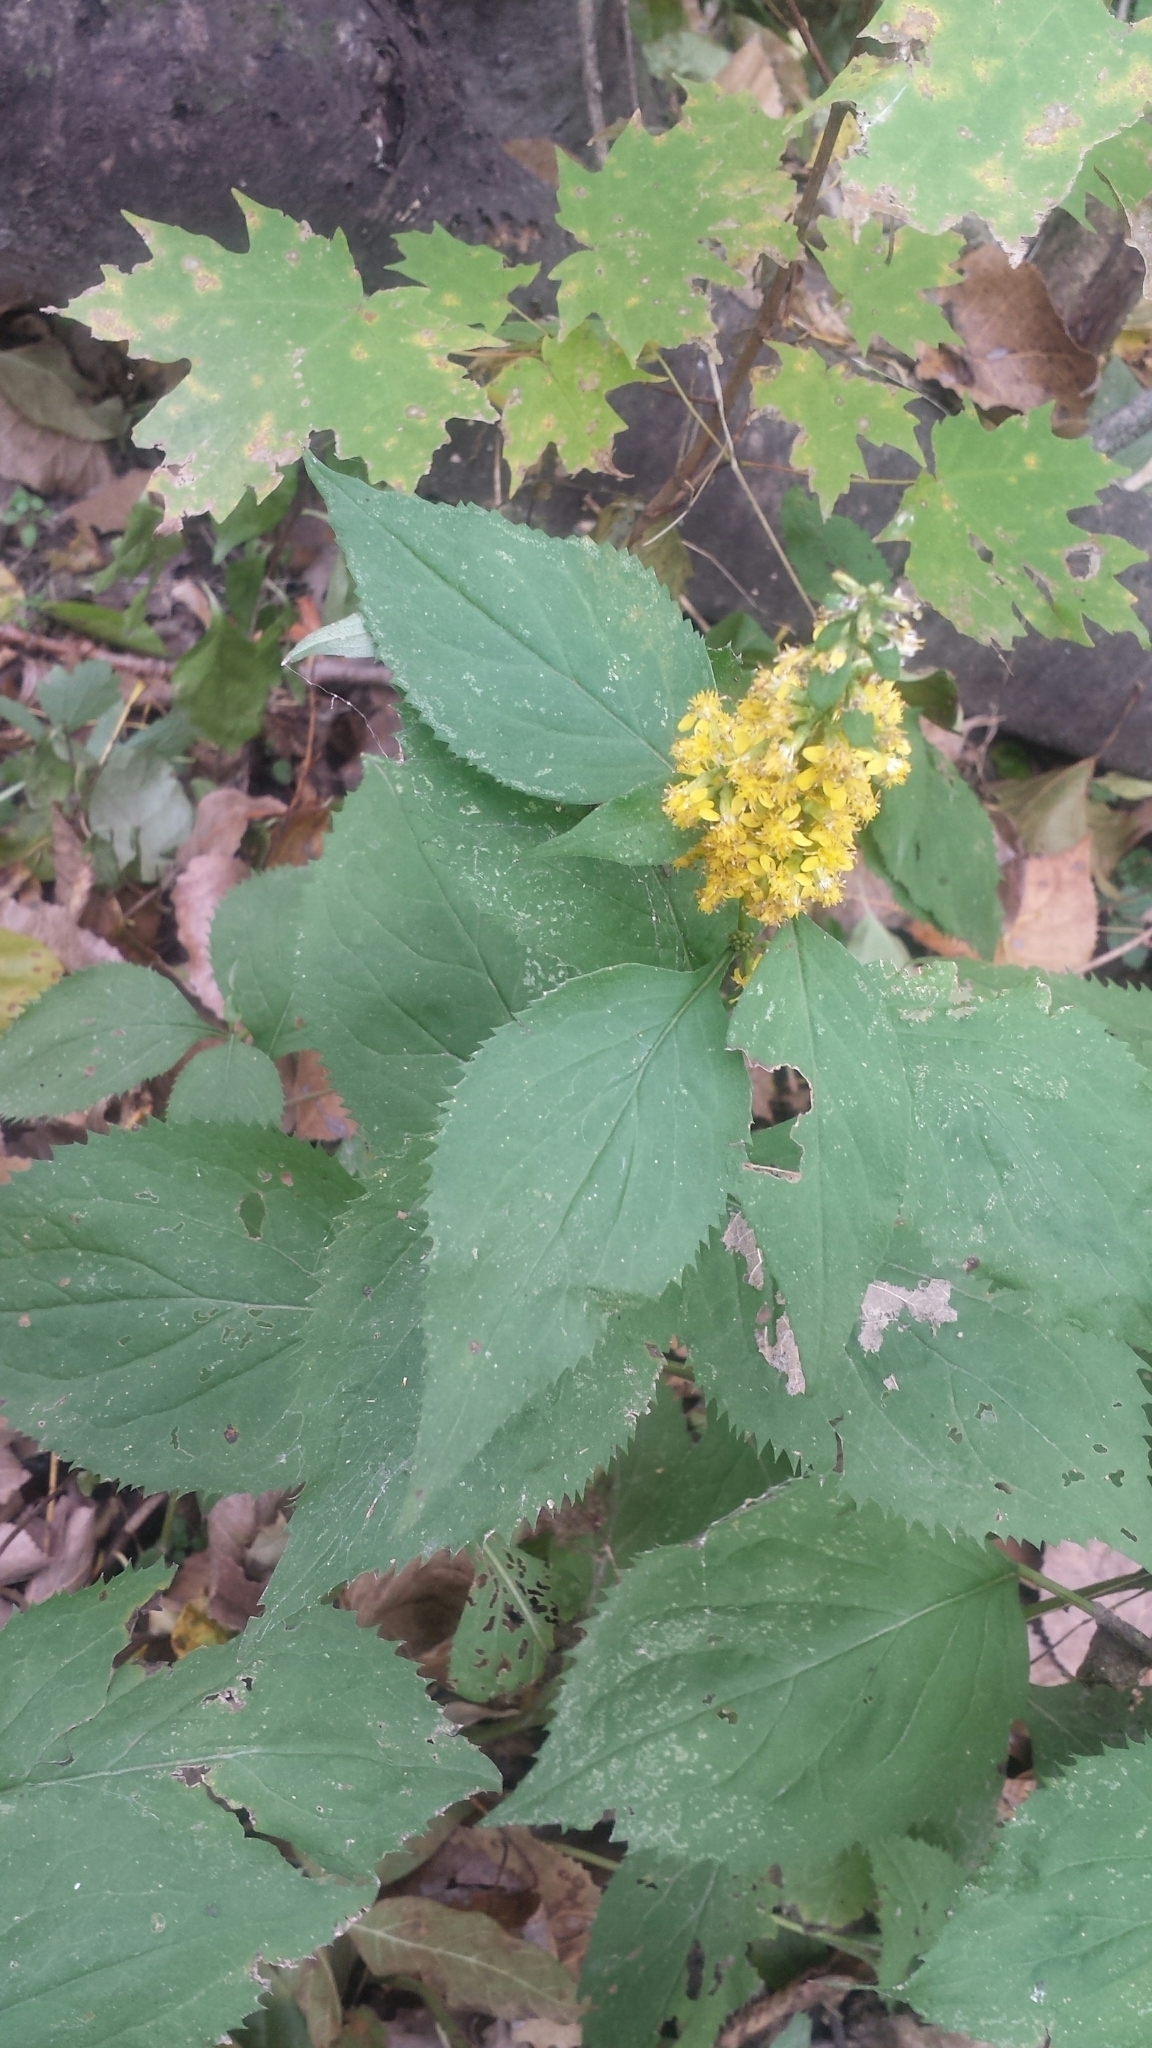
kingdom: Plantae
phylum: Tracheophyta
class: Magnoliopsida
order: Asterales
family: Asteraceae
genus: Solidago
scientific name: Solidago flexicaulis
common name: Zig-zag goldenrod
